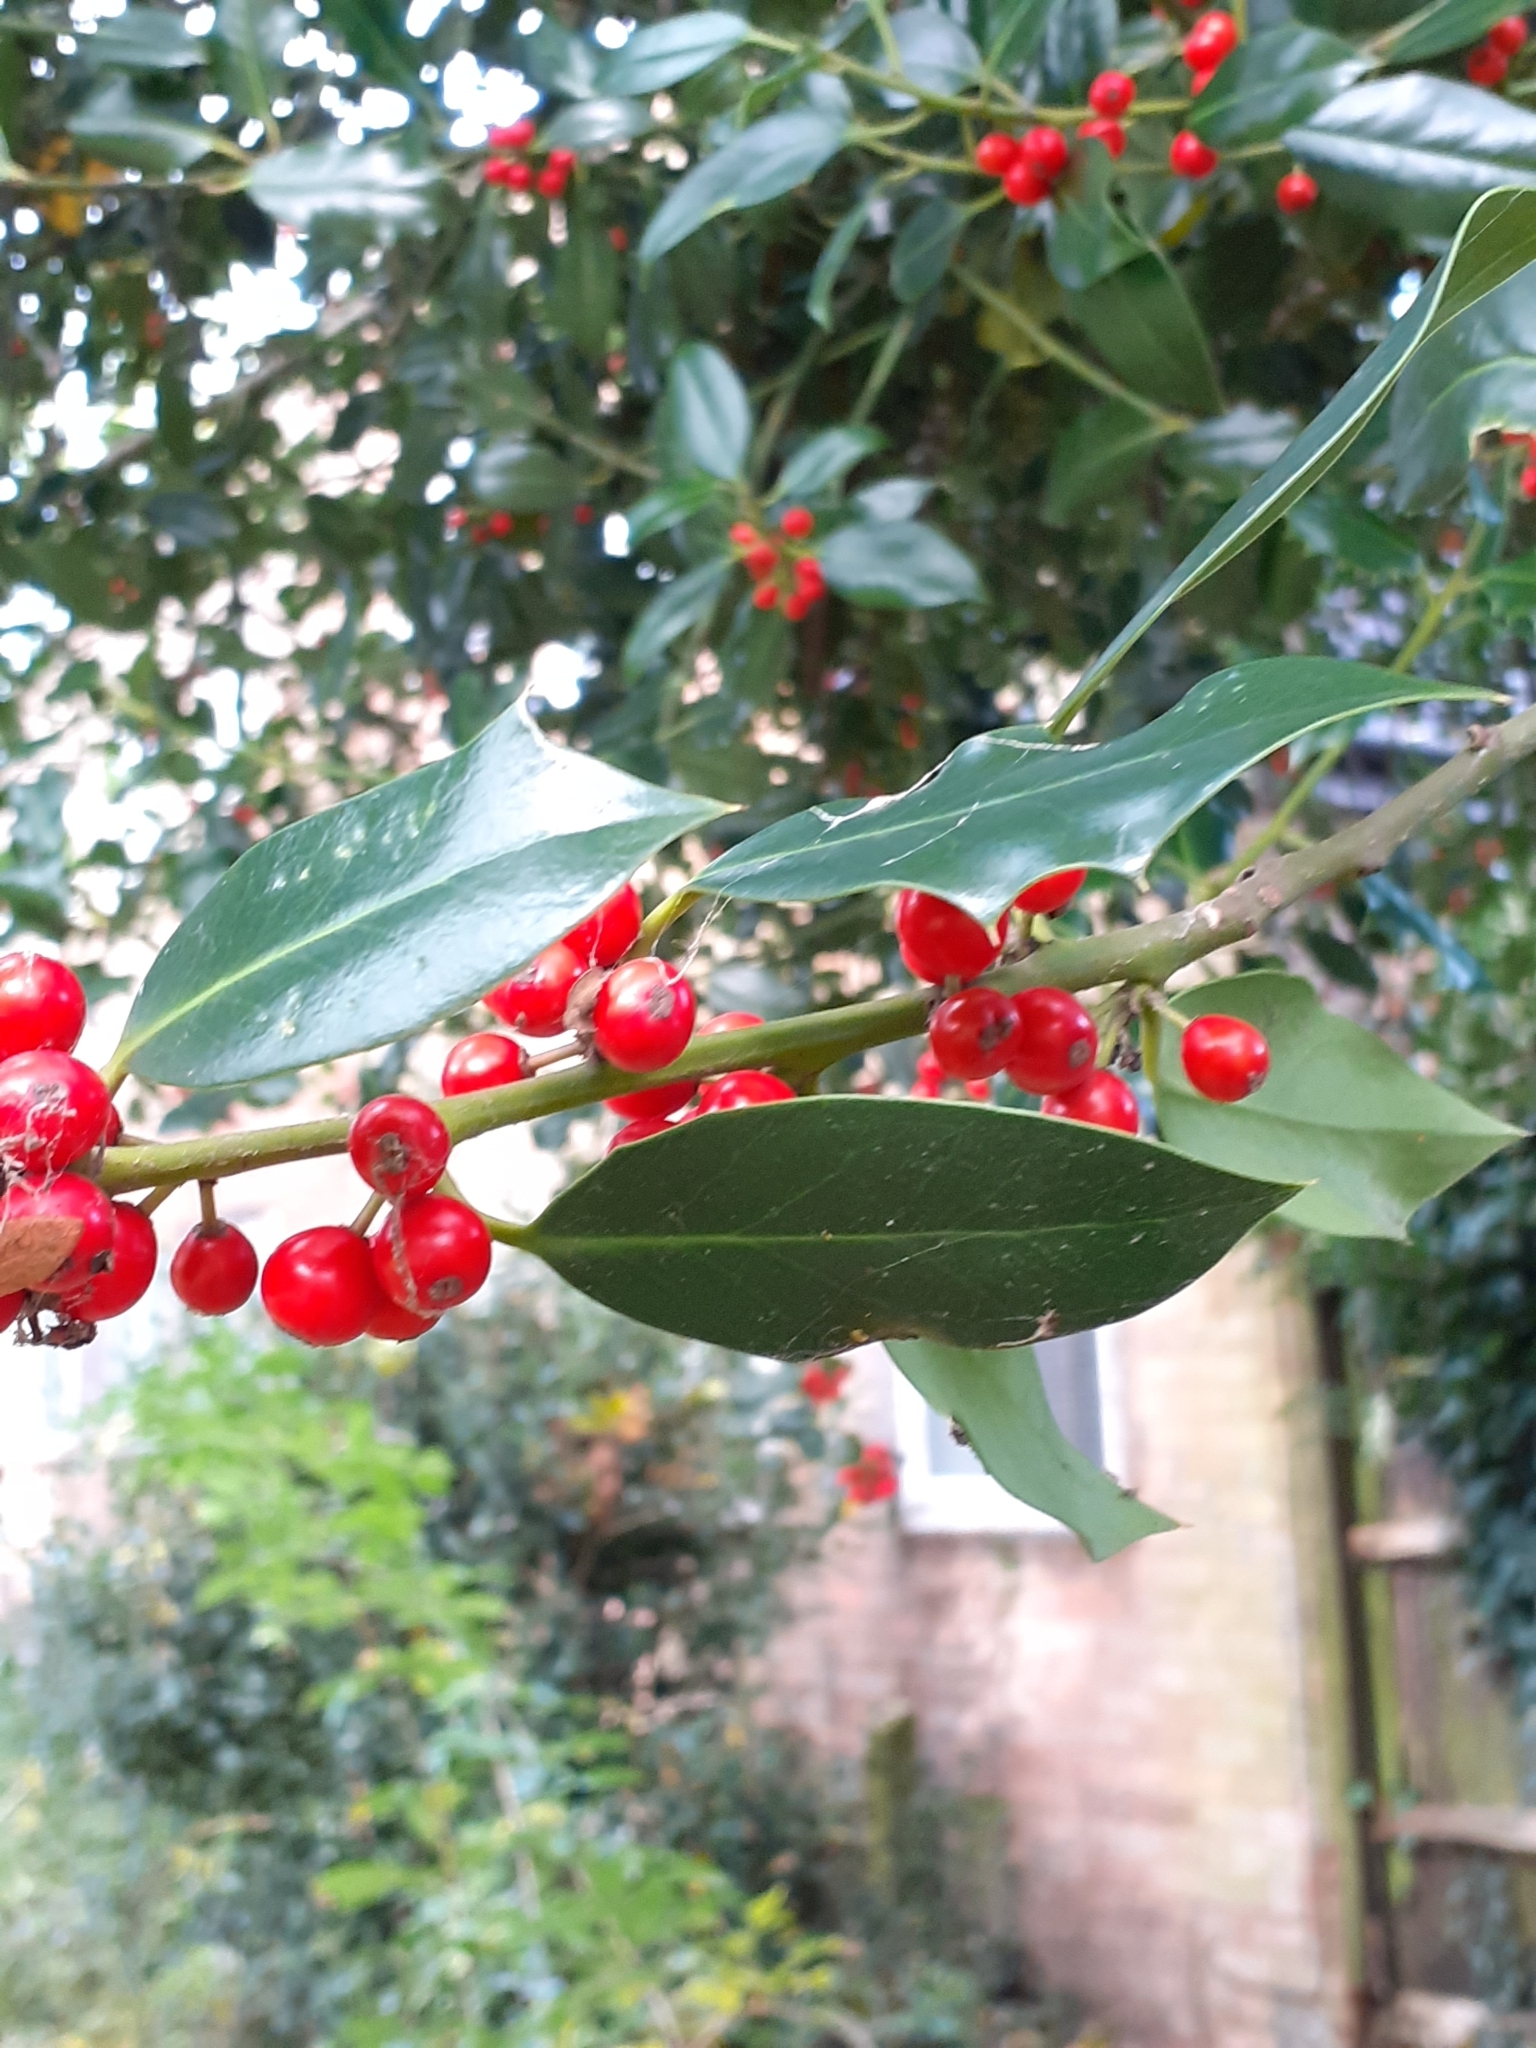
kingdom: Plantae
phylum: Tracheophyta
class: Magnoliopsida
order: Aquifoliales
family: Aquifoliaceae
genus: Ilex
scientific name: Ilex aquifolium
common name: English holly
